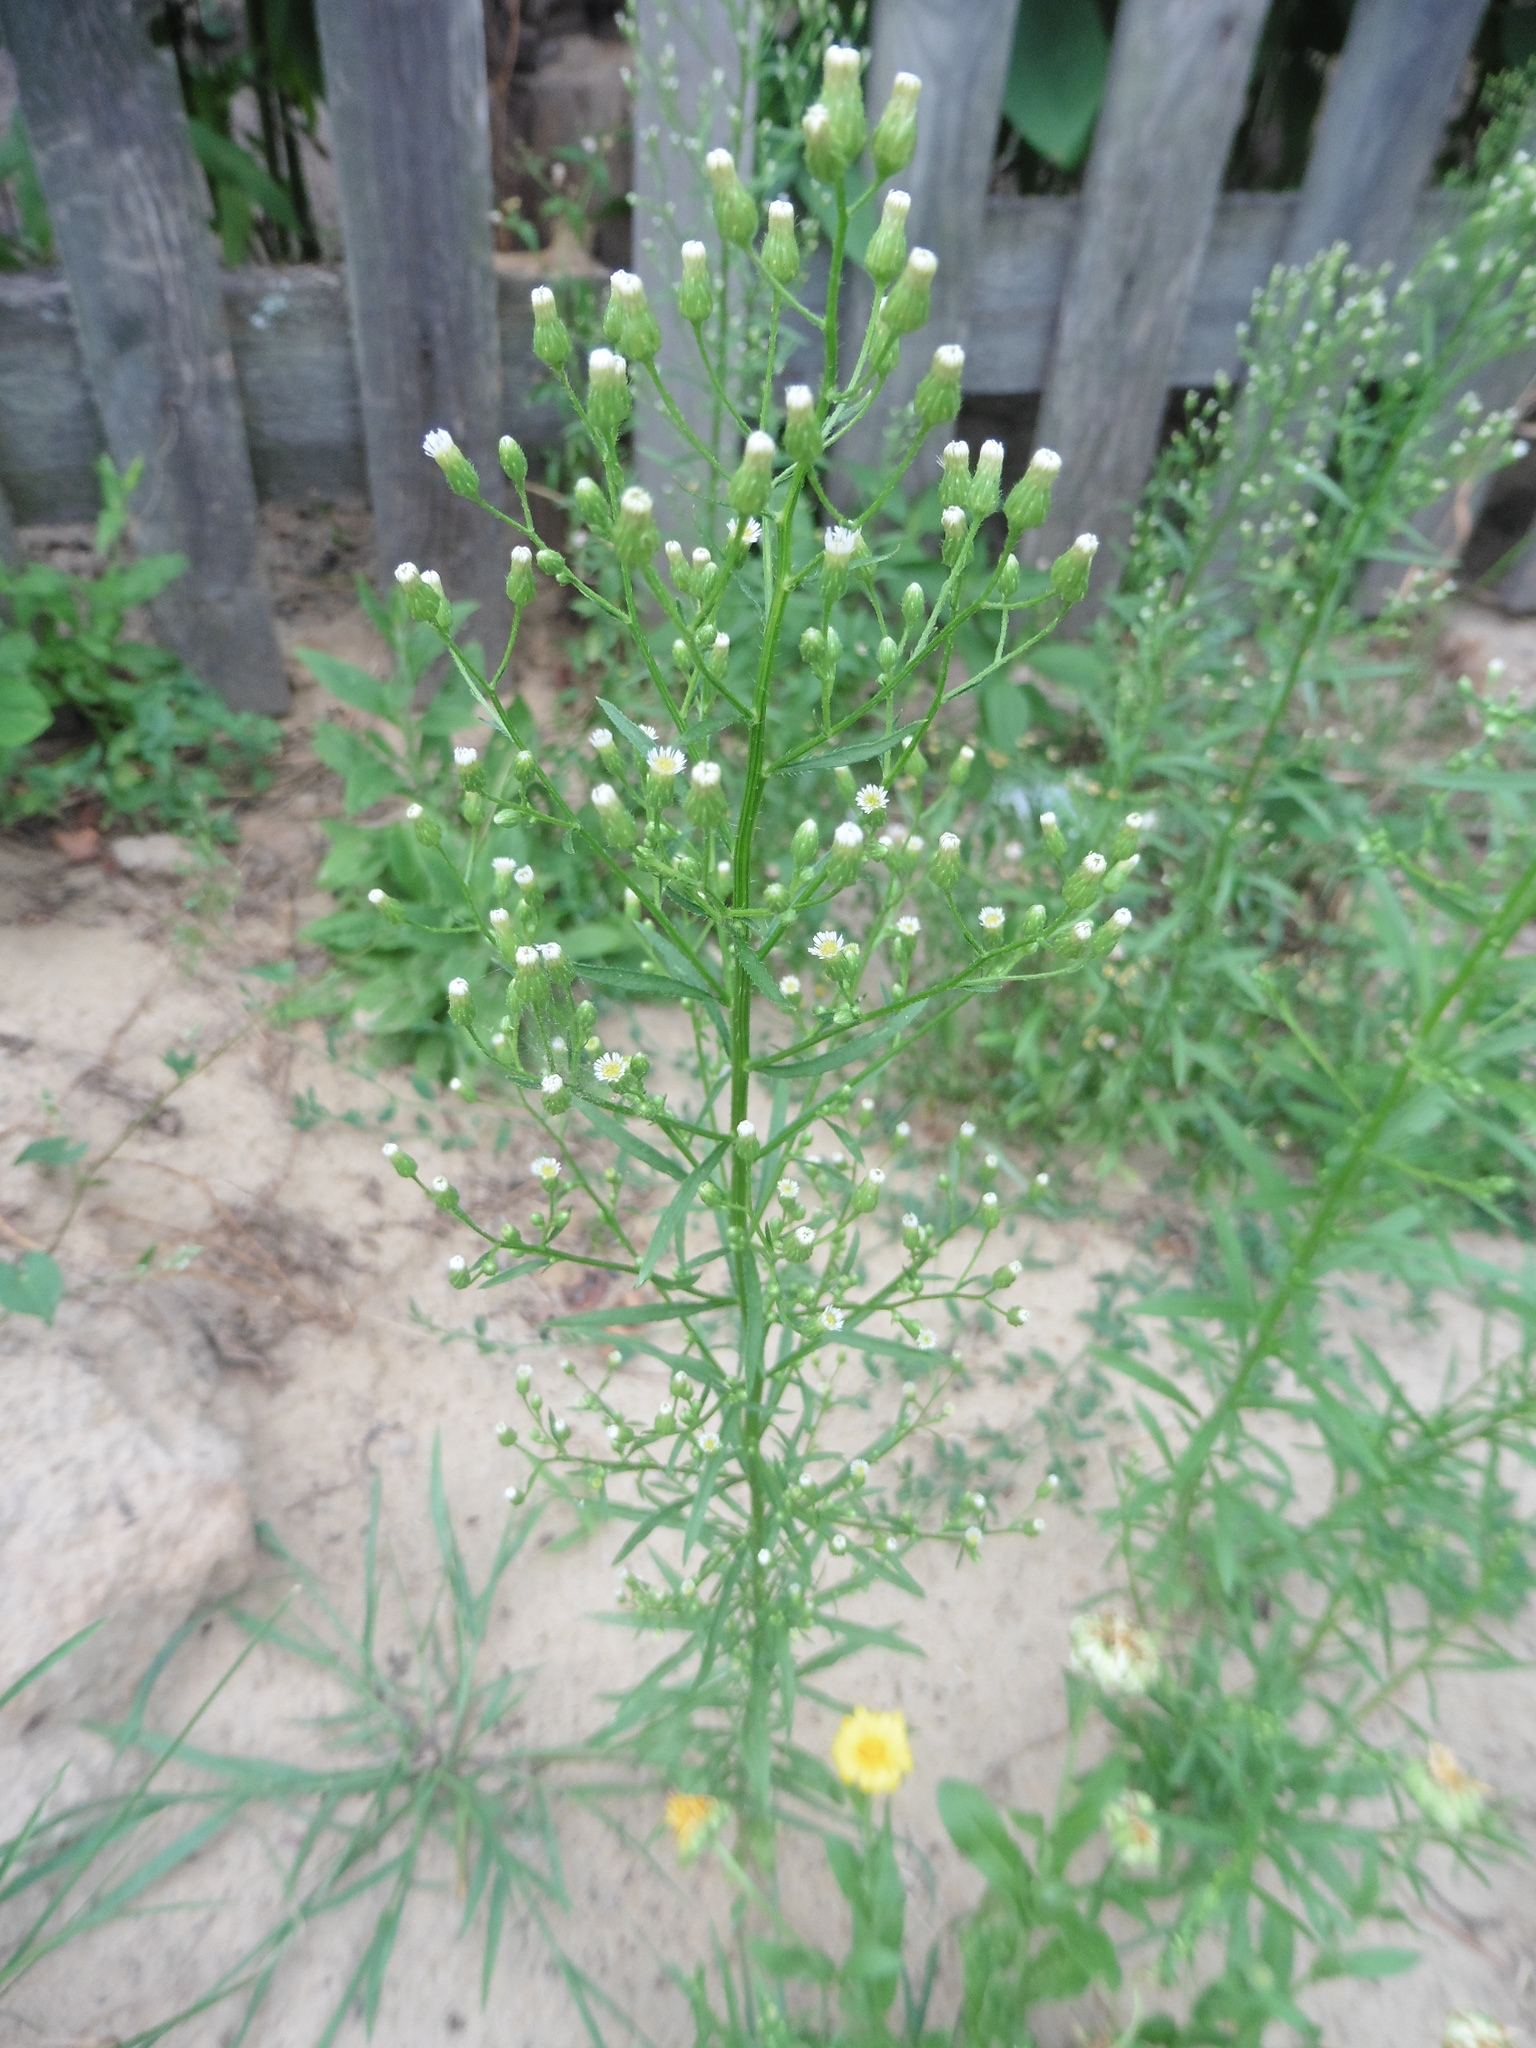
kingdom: Plantae
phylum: Tracheophyta
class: Magnoliopsida
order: Asterales
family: Asteraceae
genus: Erigeron
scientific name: Erigeron canadensis
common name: Canadian fleabane
